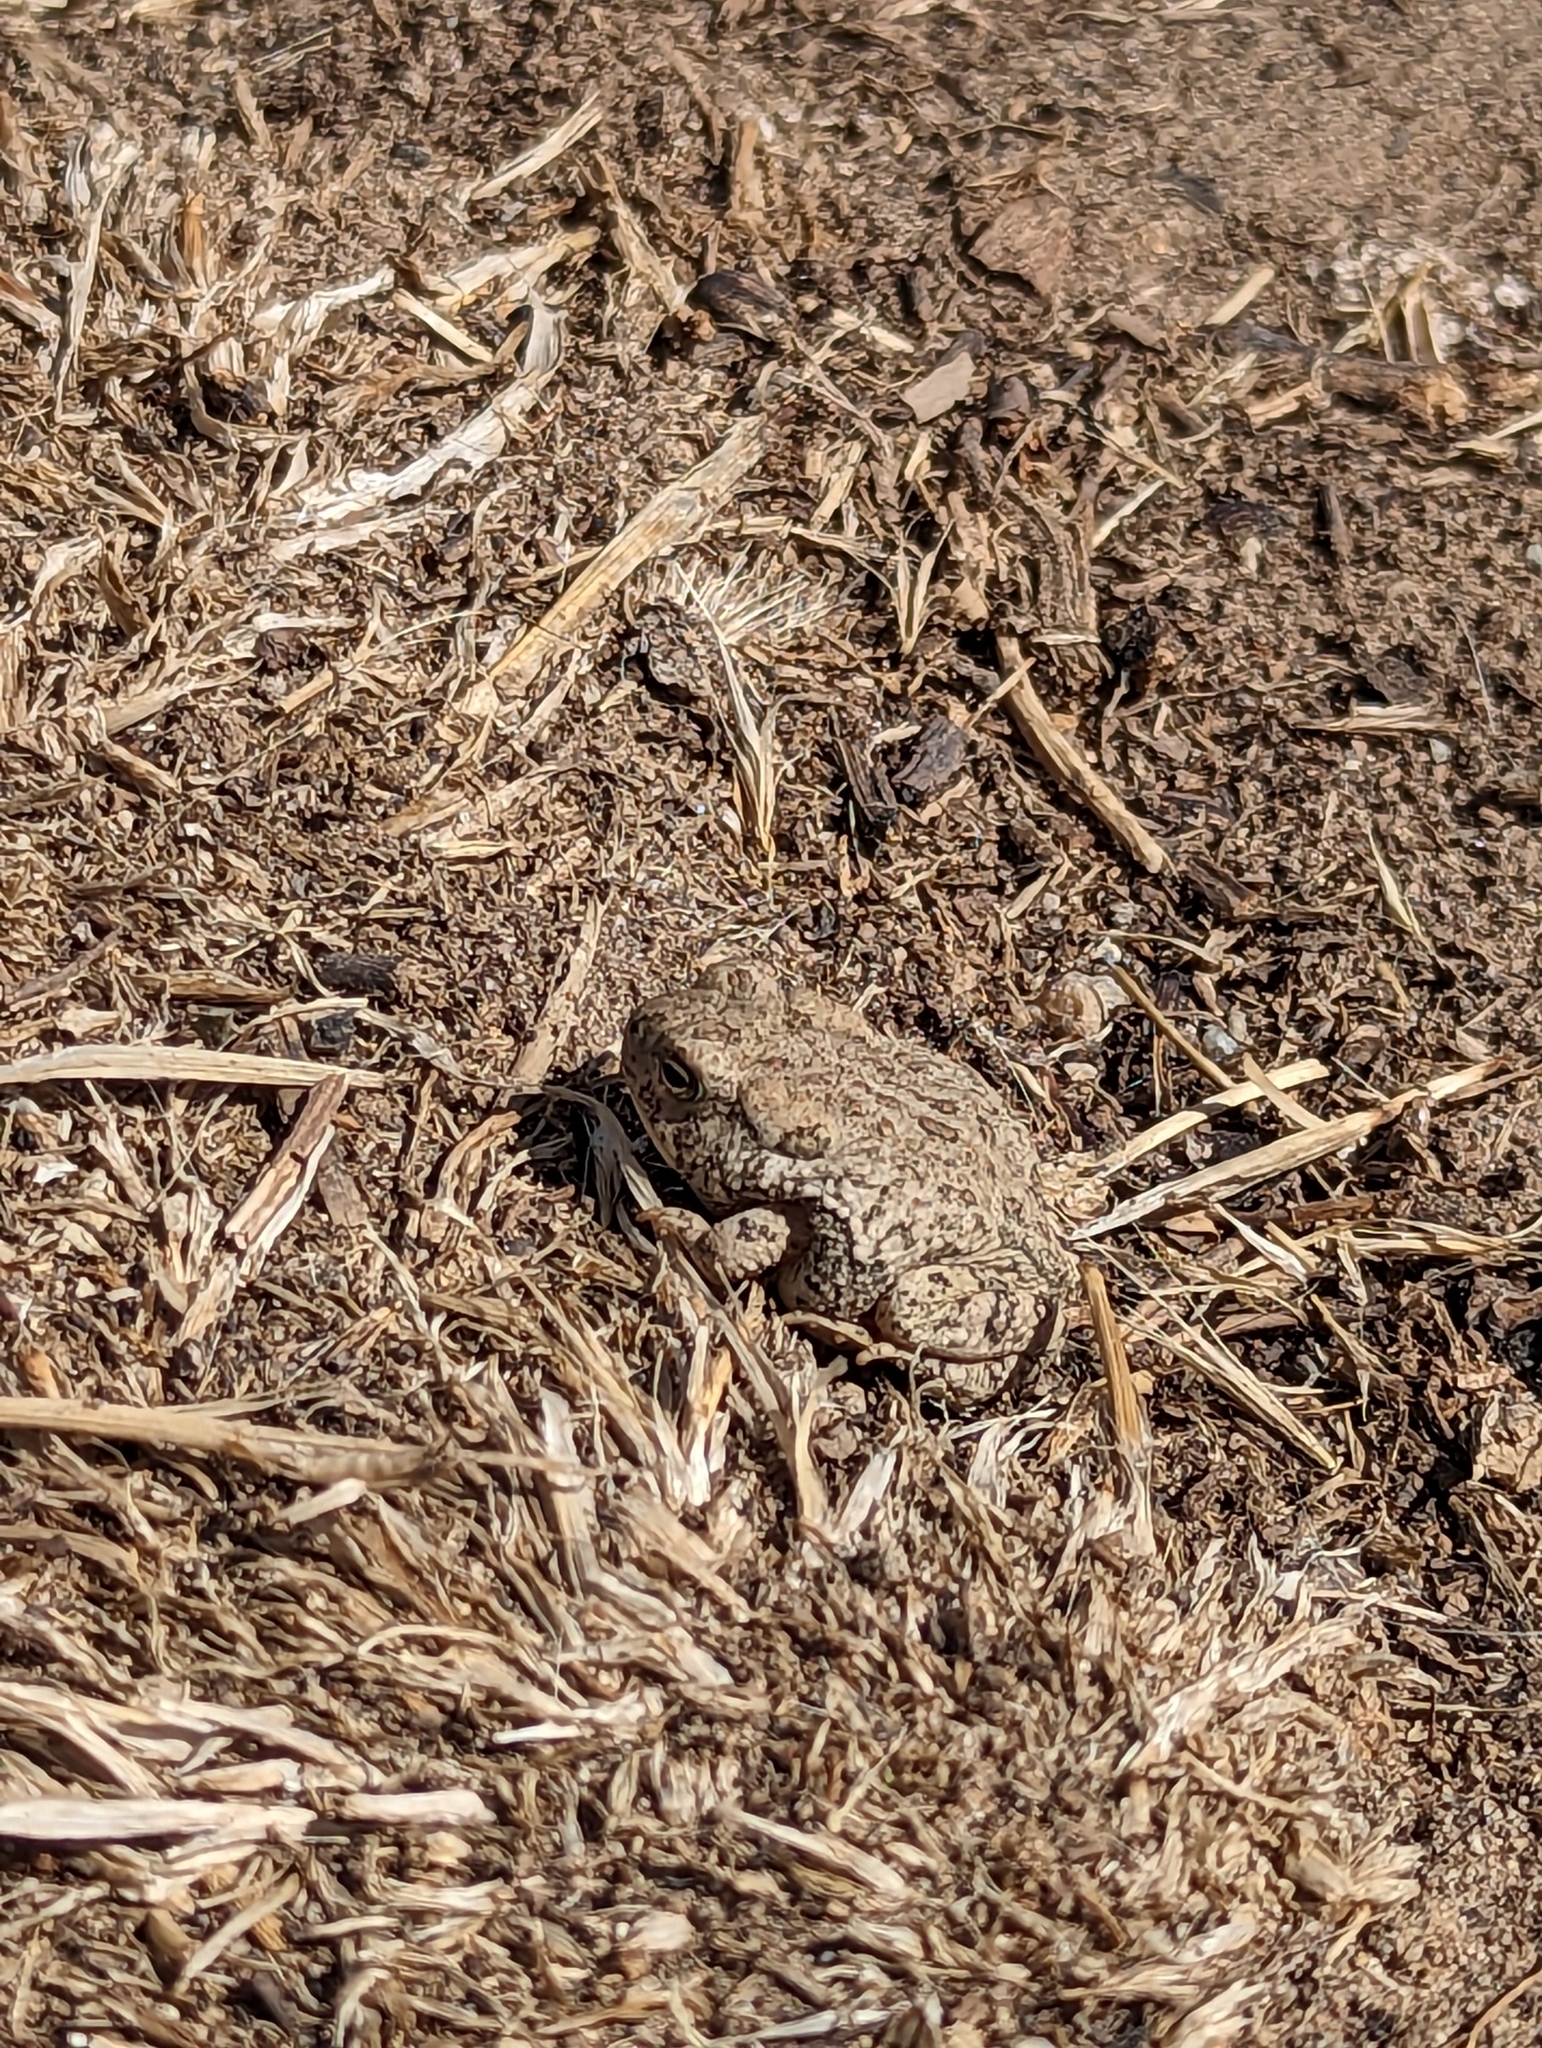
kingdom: Animalia
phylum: Chordata
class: Amphibia
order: Anura
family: Bufonidae
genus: Anaxyrus
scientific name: Anaxyrus woodhousii
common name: Woodhouse's toad
